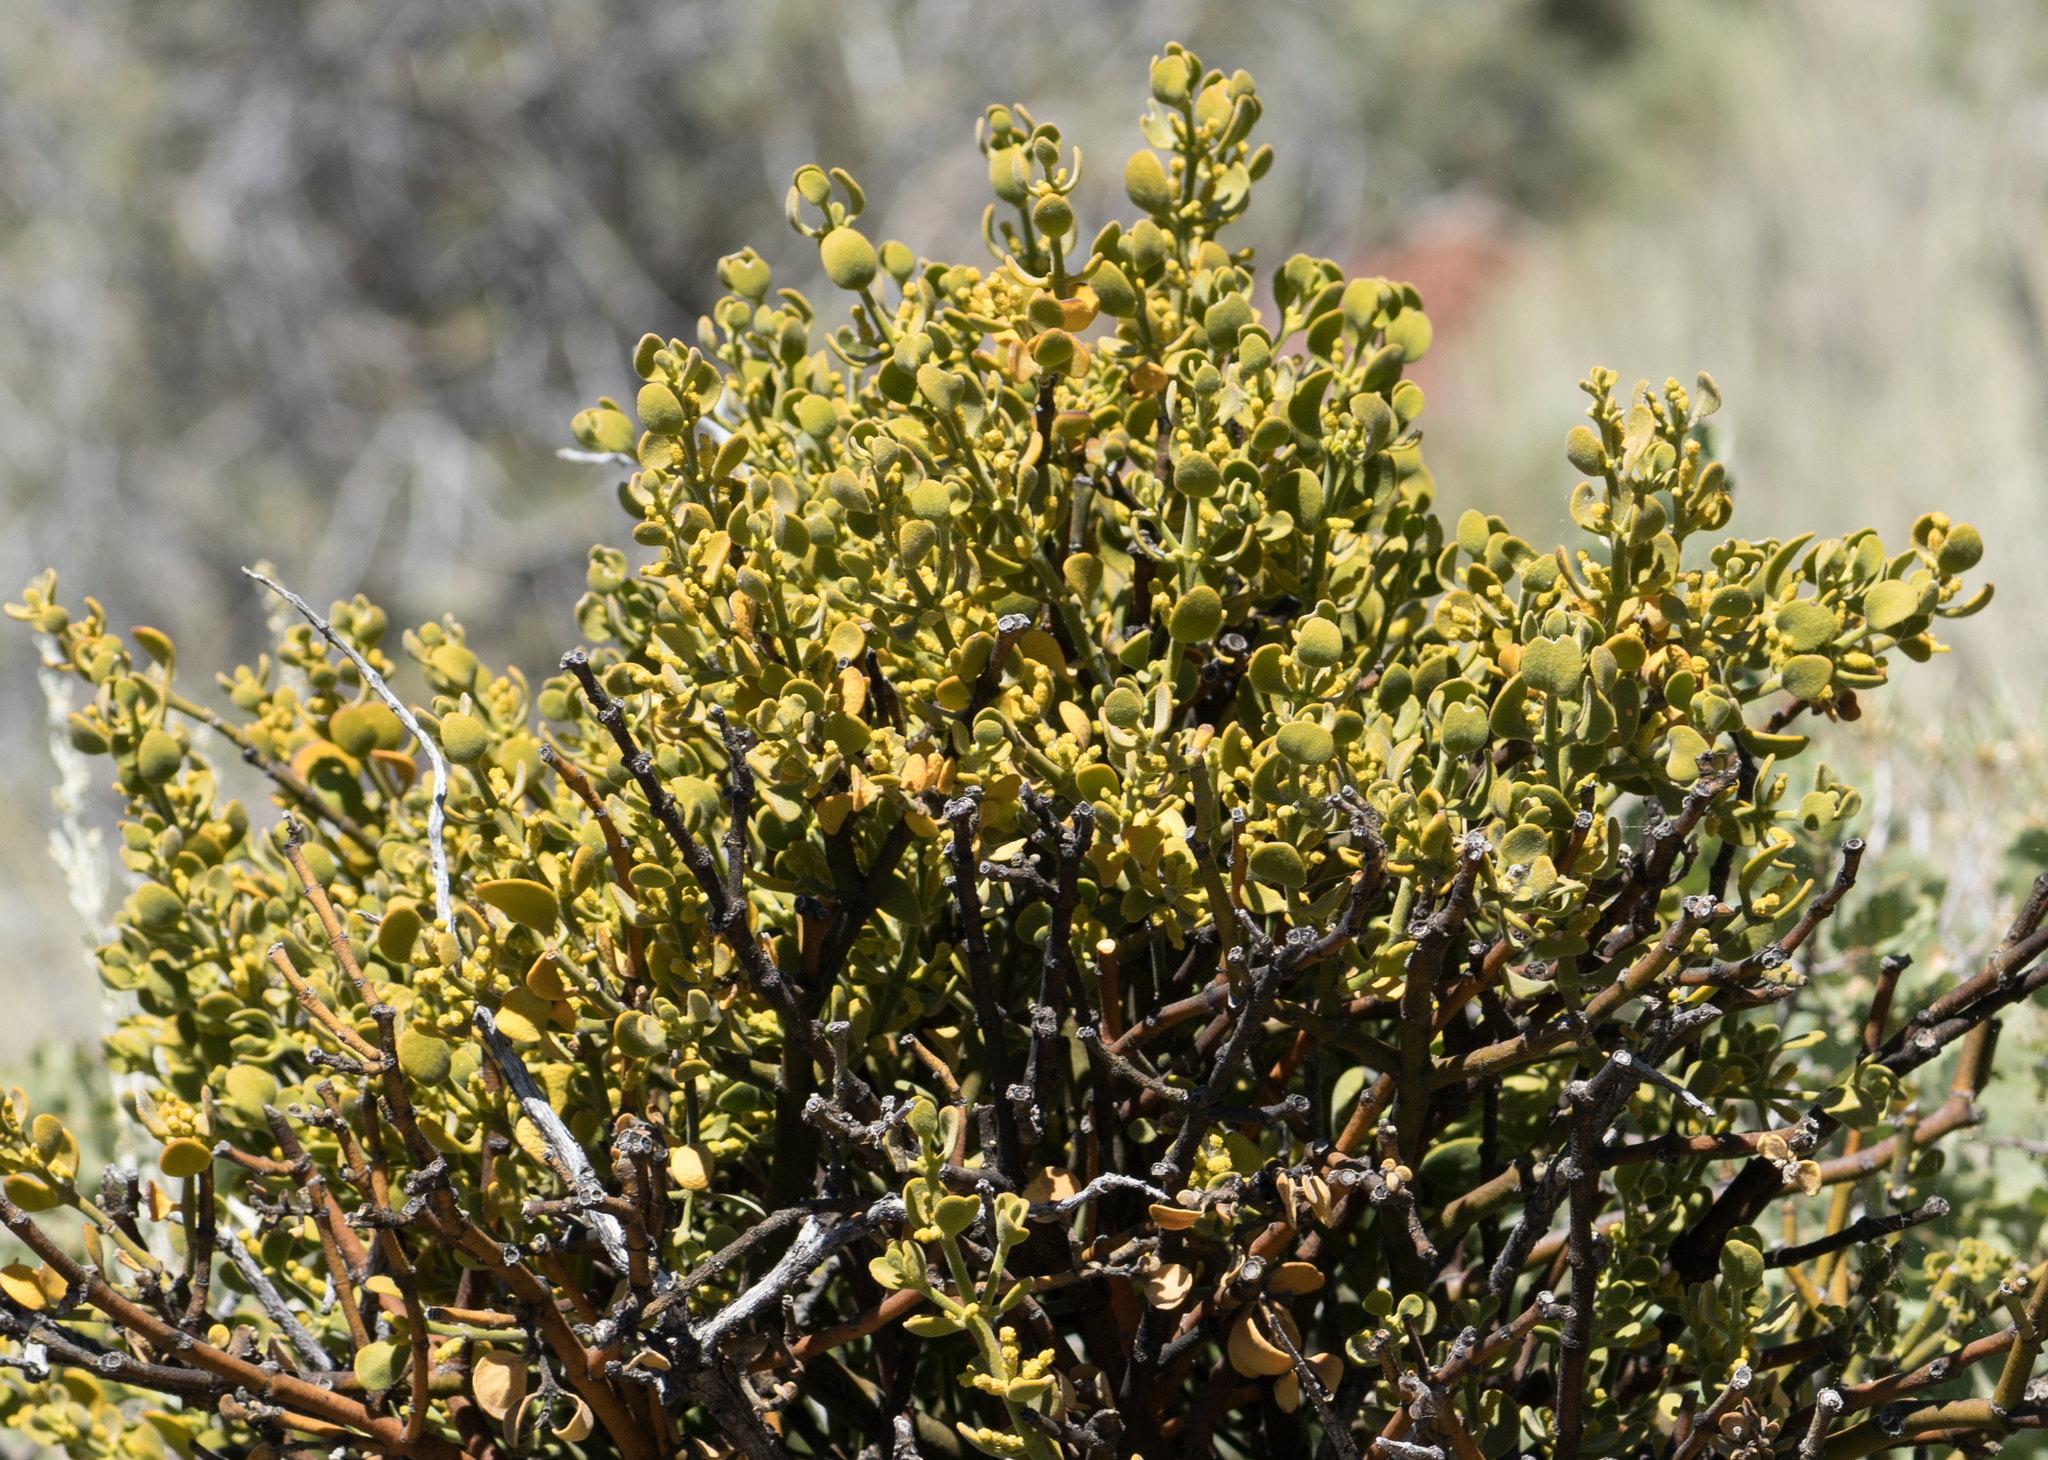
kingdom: Plantae
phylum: Tracheophyta
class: Magnoliopsida
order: Santalales
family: Viscaceae
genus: Phoradendron
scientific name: Phoradendron leucarpum
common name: Pacific mistletoe
